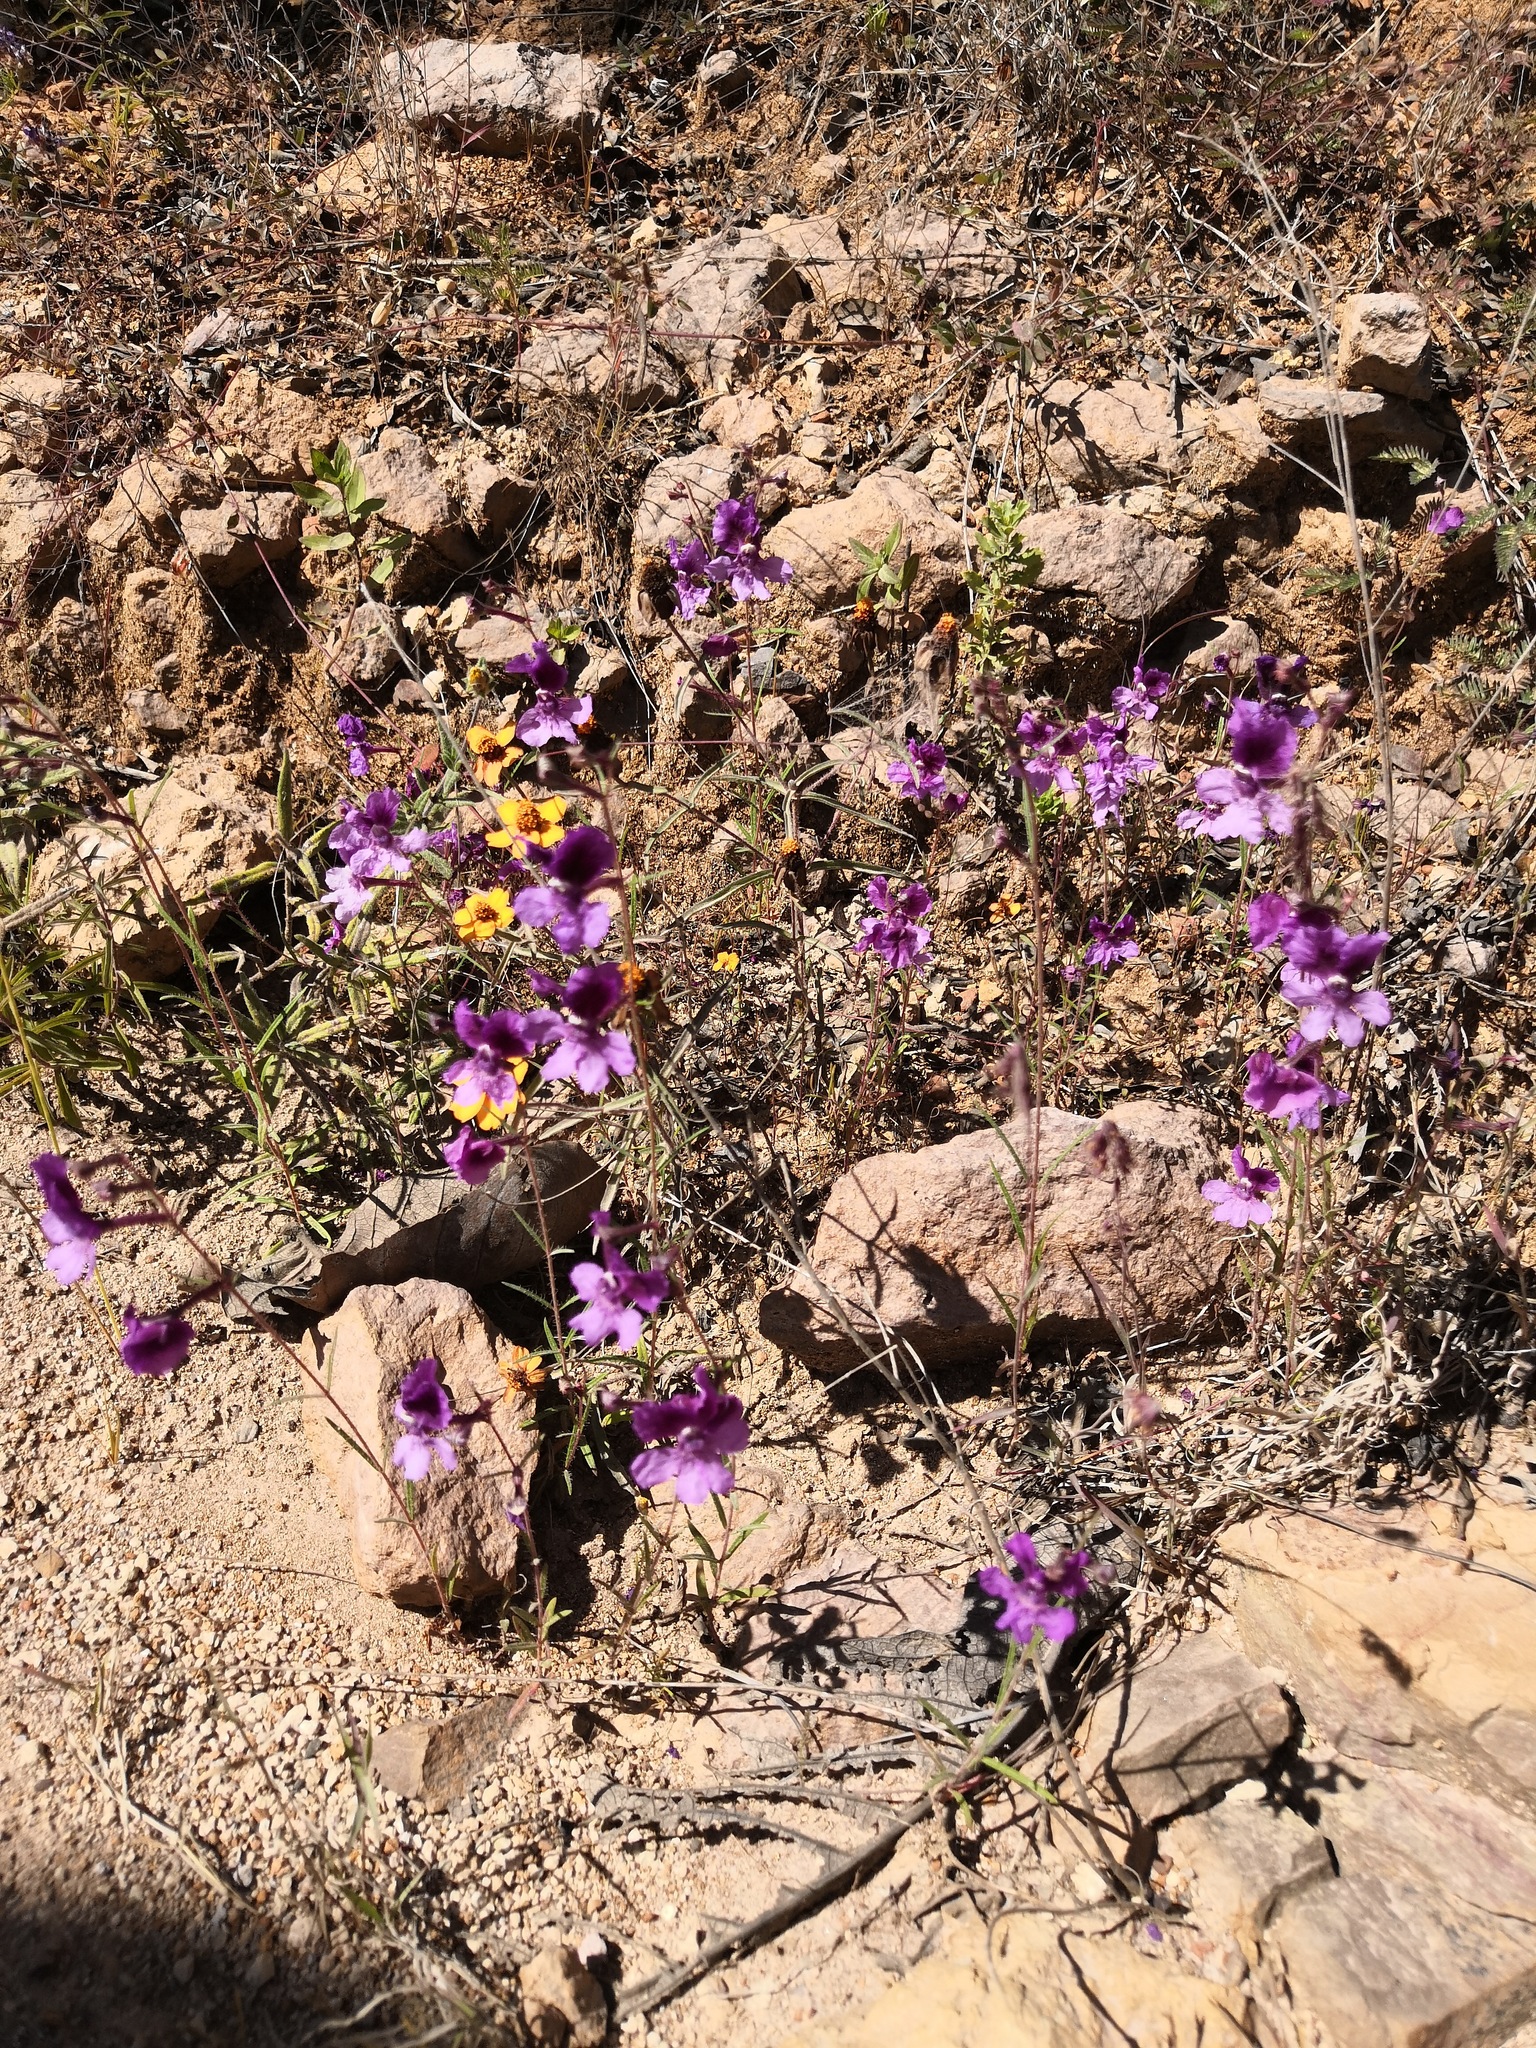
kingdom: Plantae
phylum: Tracheophyta
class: Magnoliopsida
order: Myrtales
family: Lythraceae
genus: Cuphea
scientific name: Cuphea calcarata
